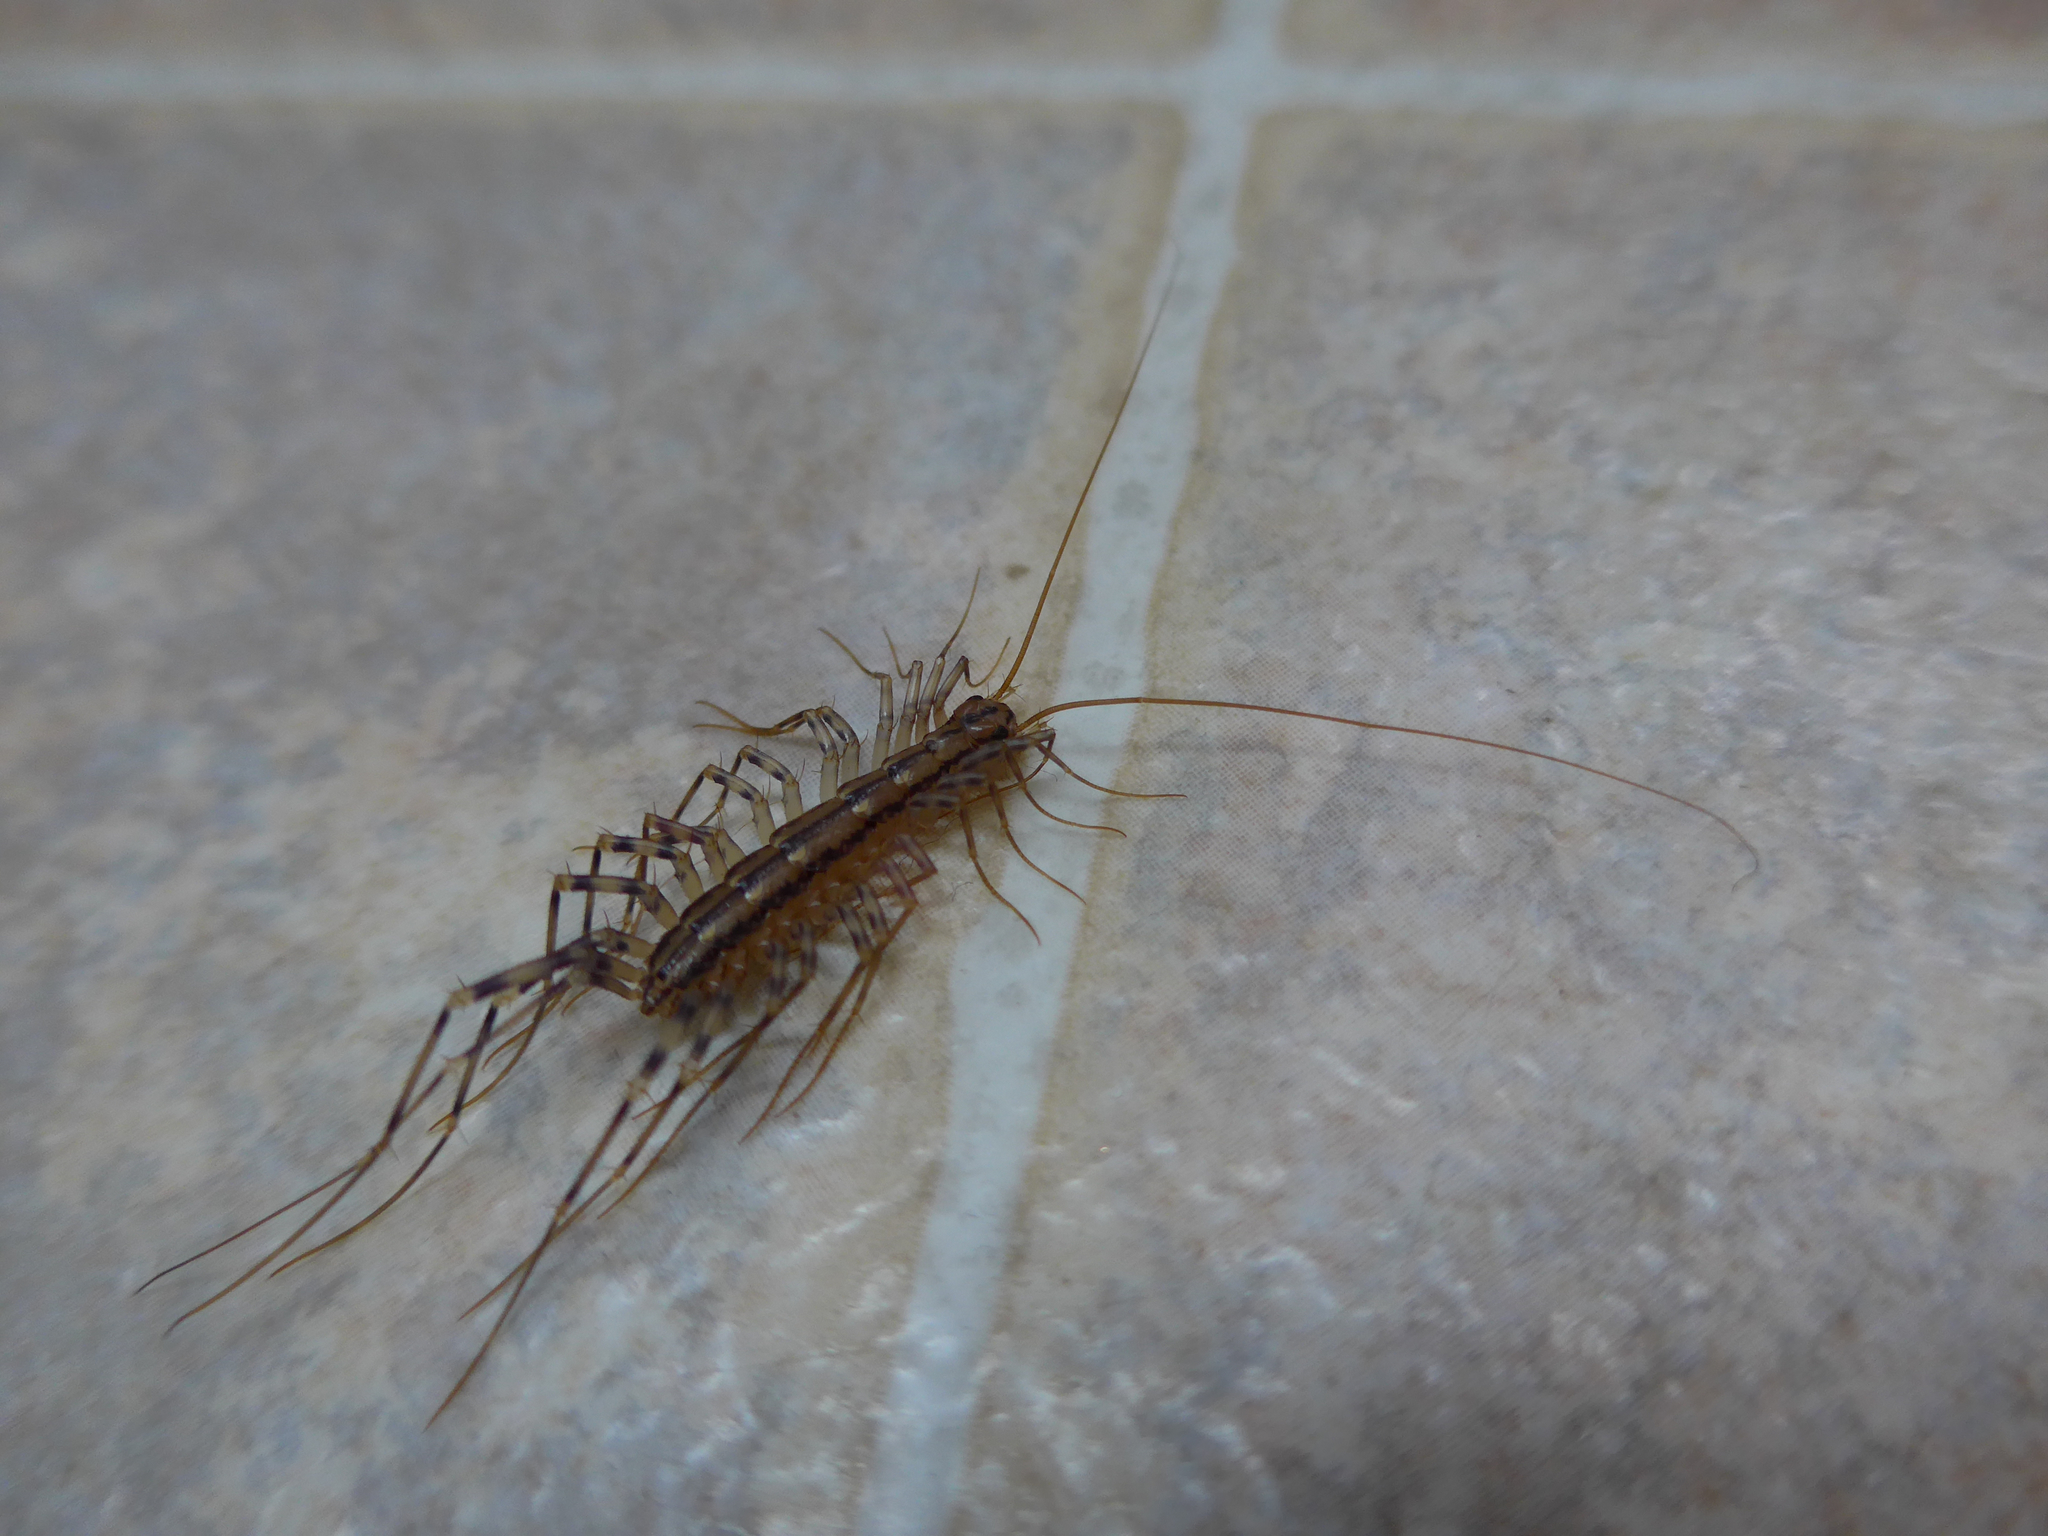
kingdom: Animalia
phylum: Arthropoda
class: Chilopoda
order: Scutigeromorpha
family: Scutigeridae
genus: Scutigera
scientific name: Scutigera coleoptrata
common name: House centipede
